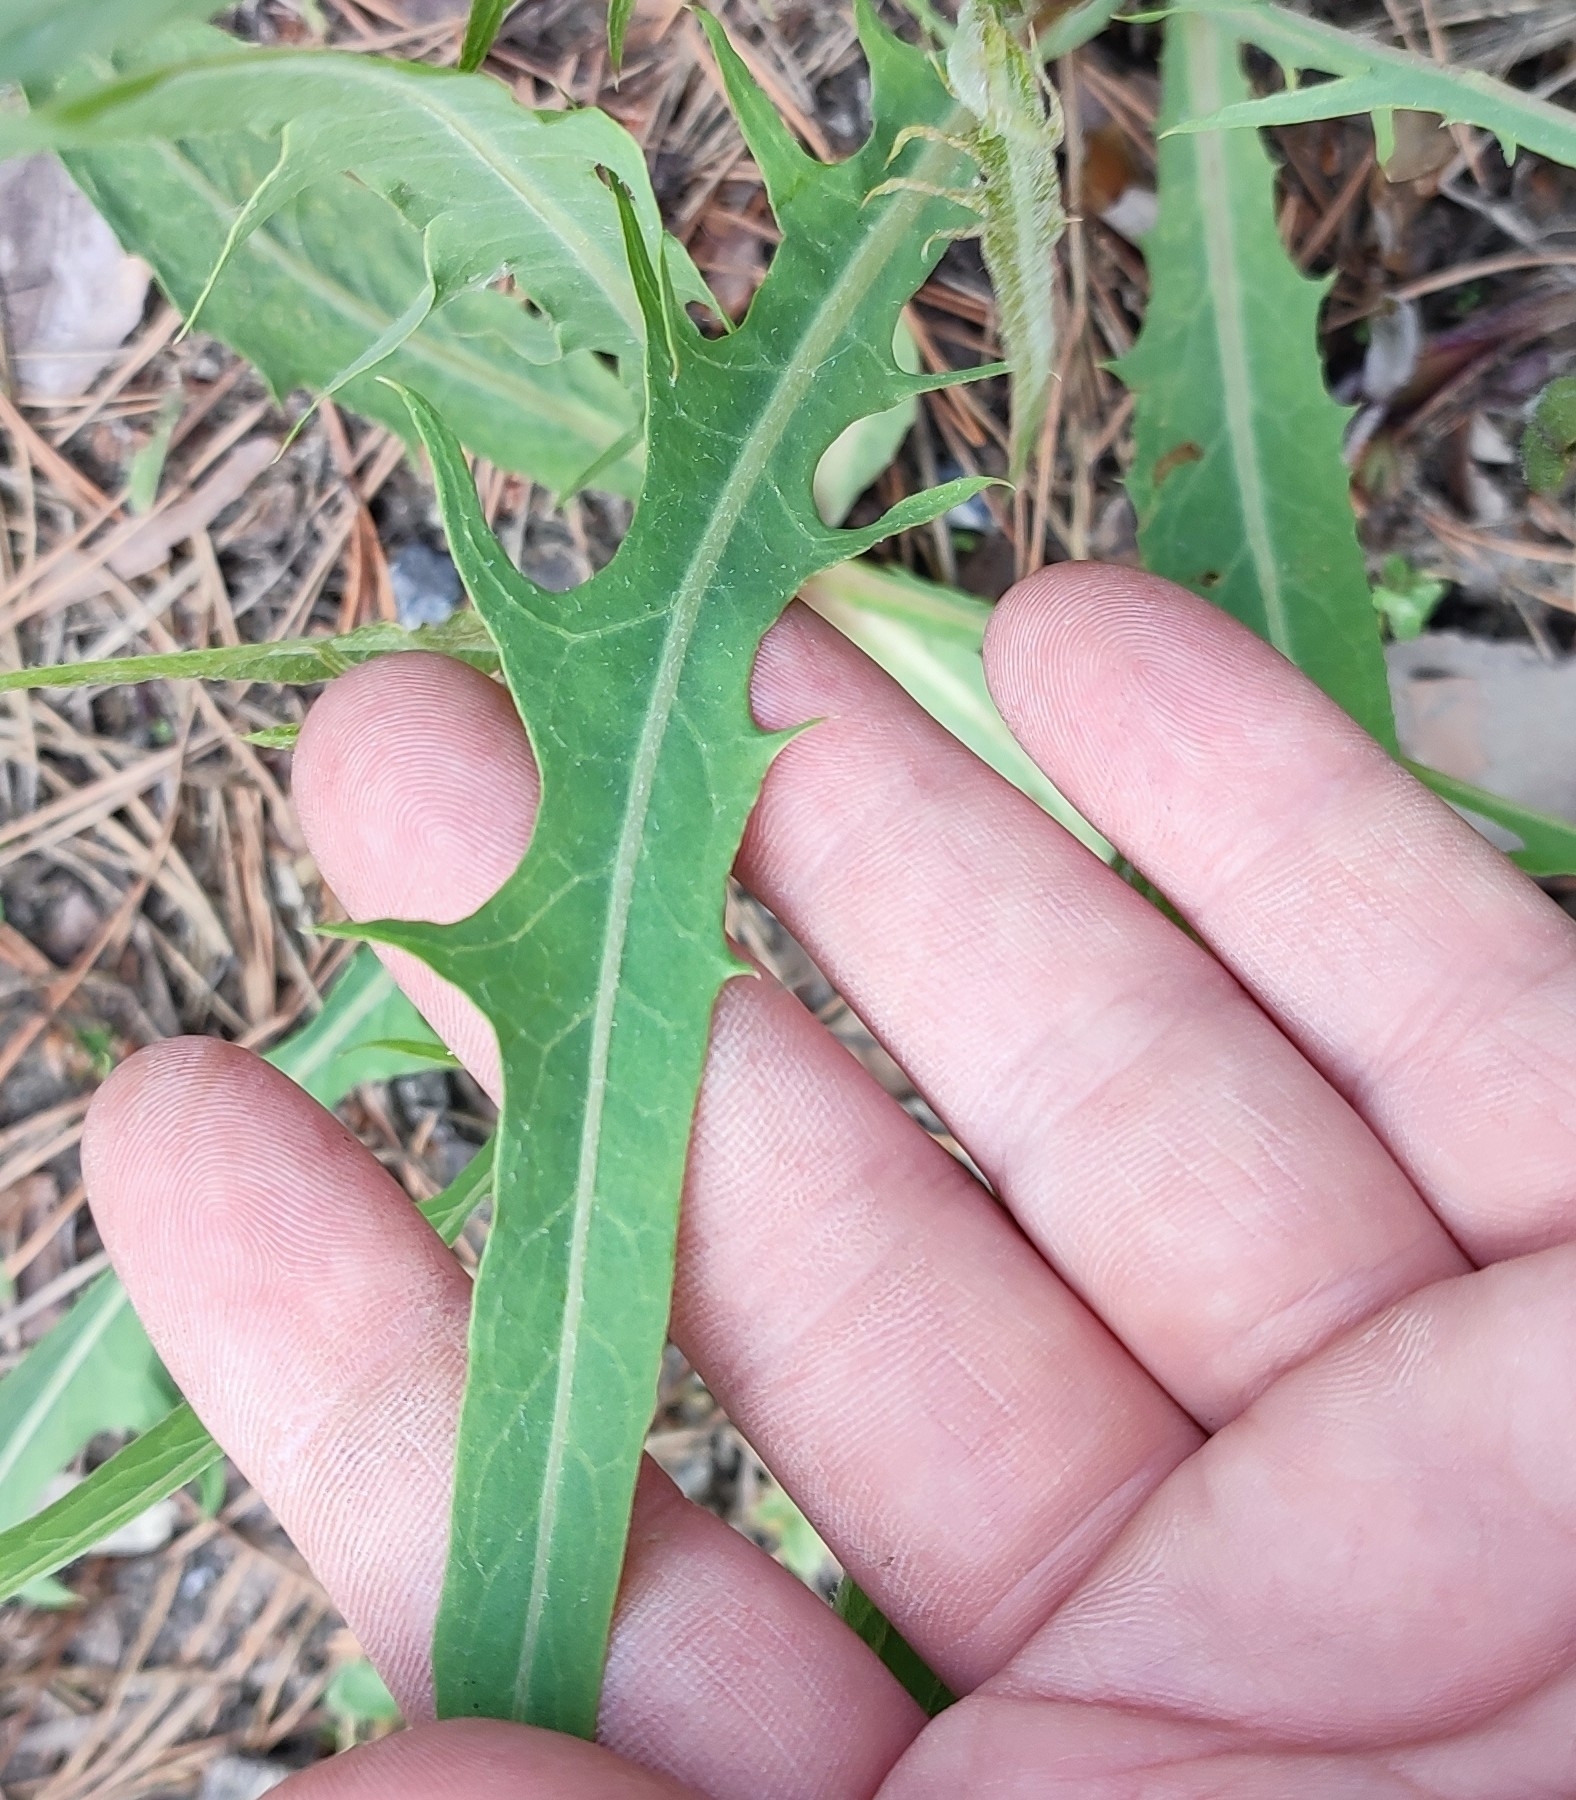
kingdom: Plantae
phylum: Tracheophyta
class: Magnoliopsida
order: Asterales
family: Asteraceae
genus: Lactuca
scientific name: Lactuca tatarica
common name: Blue lettuce
